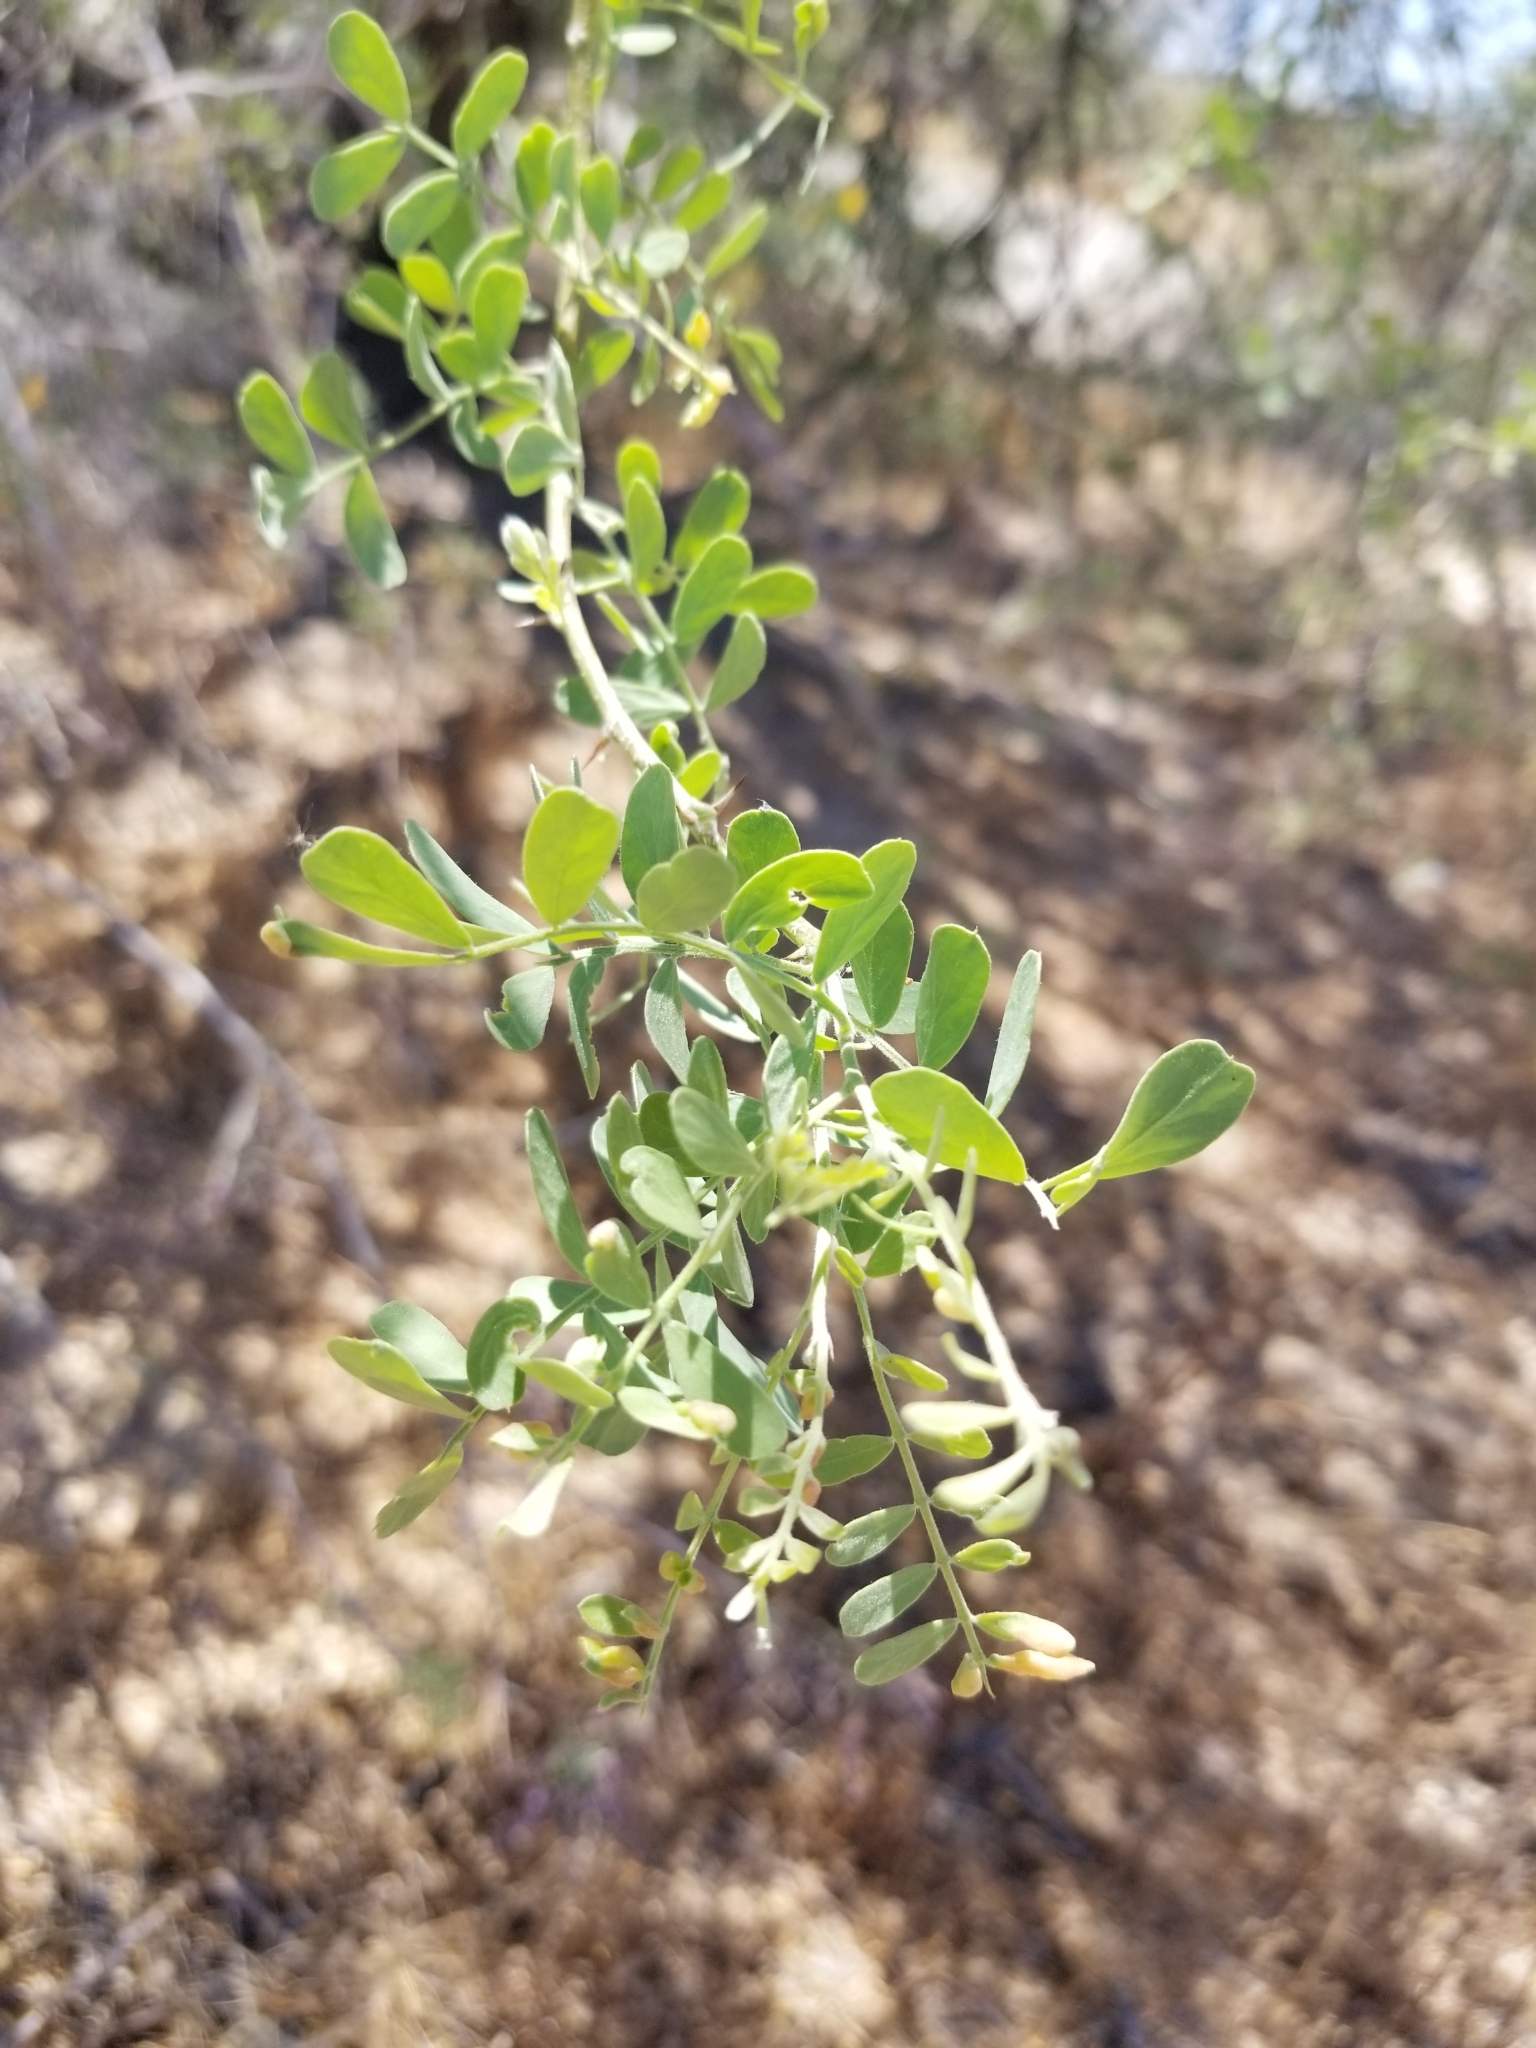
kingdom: Plantae
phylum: Tracheophyta
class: Magnoliopsida
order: Fabales
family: Fabaceae
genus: Olneya
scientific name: Olneya tesota
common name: Desert ironwood
